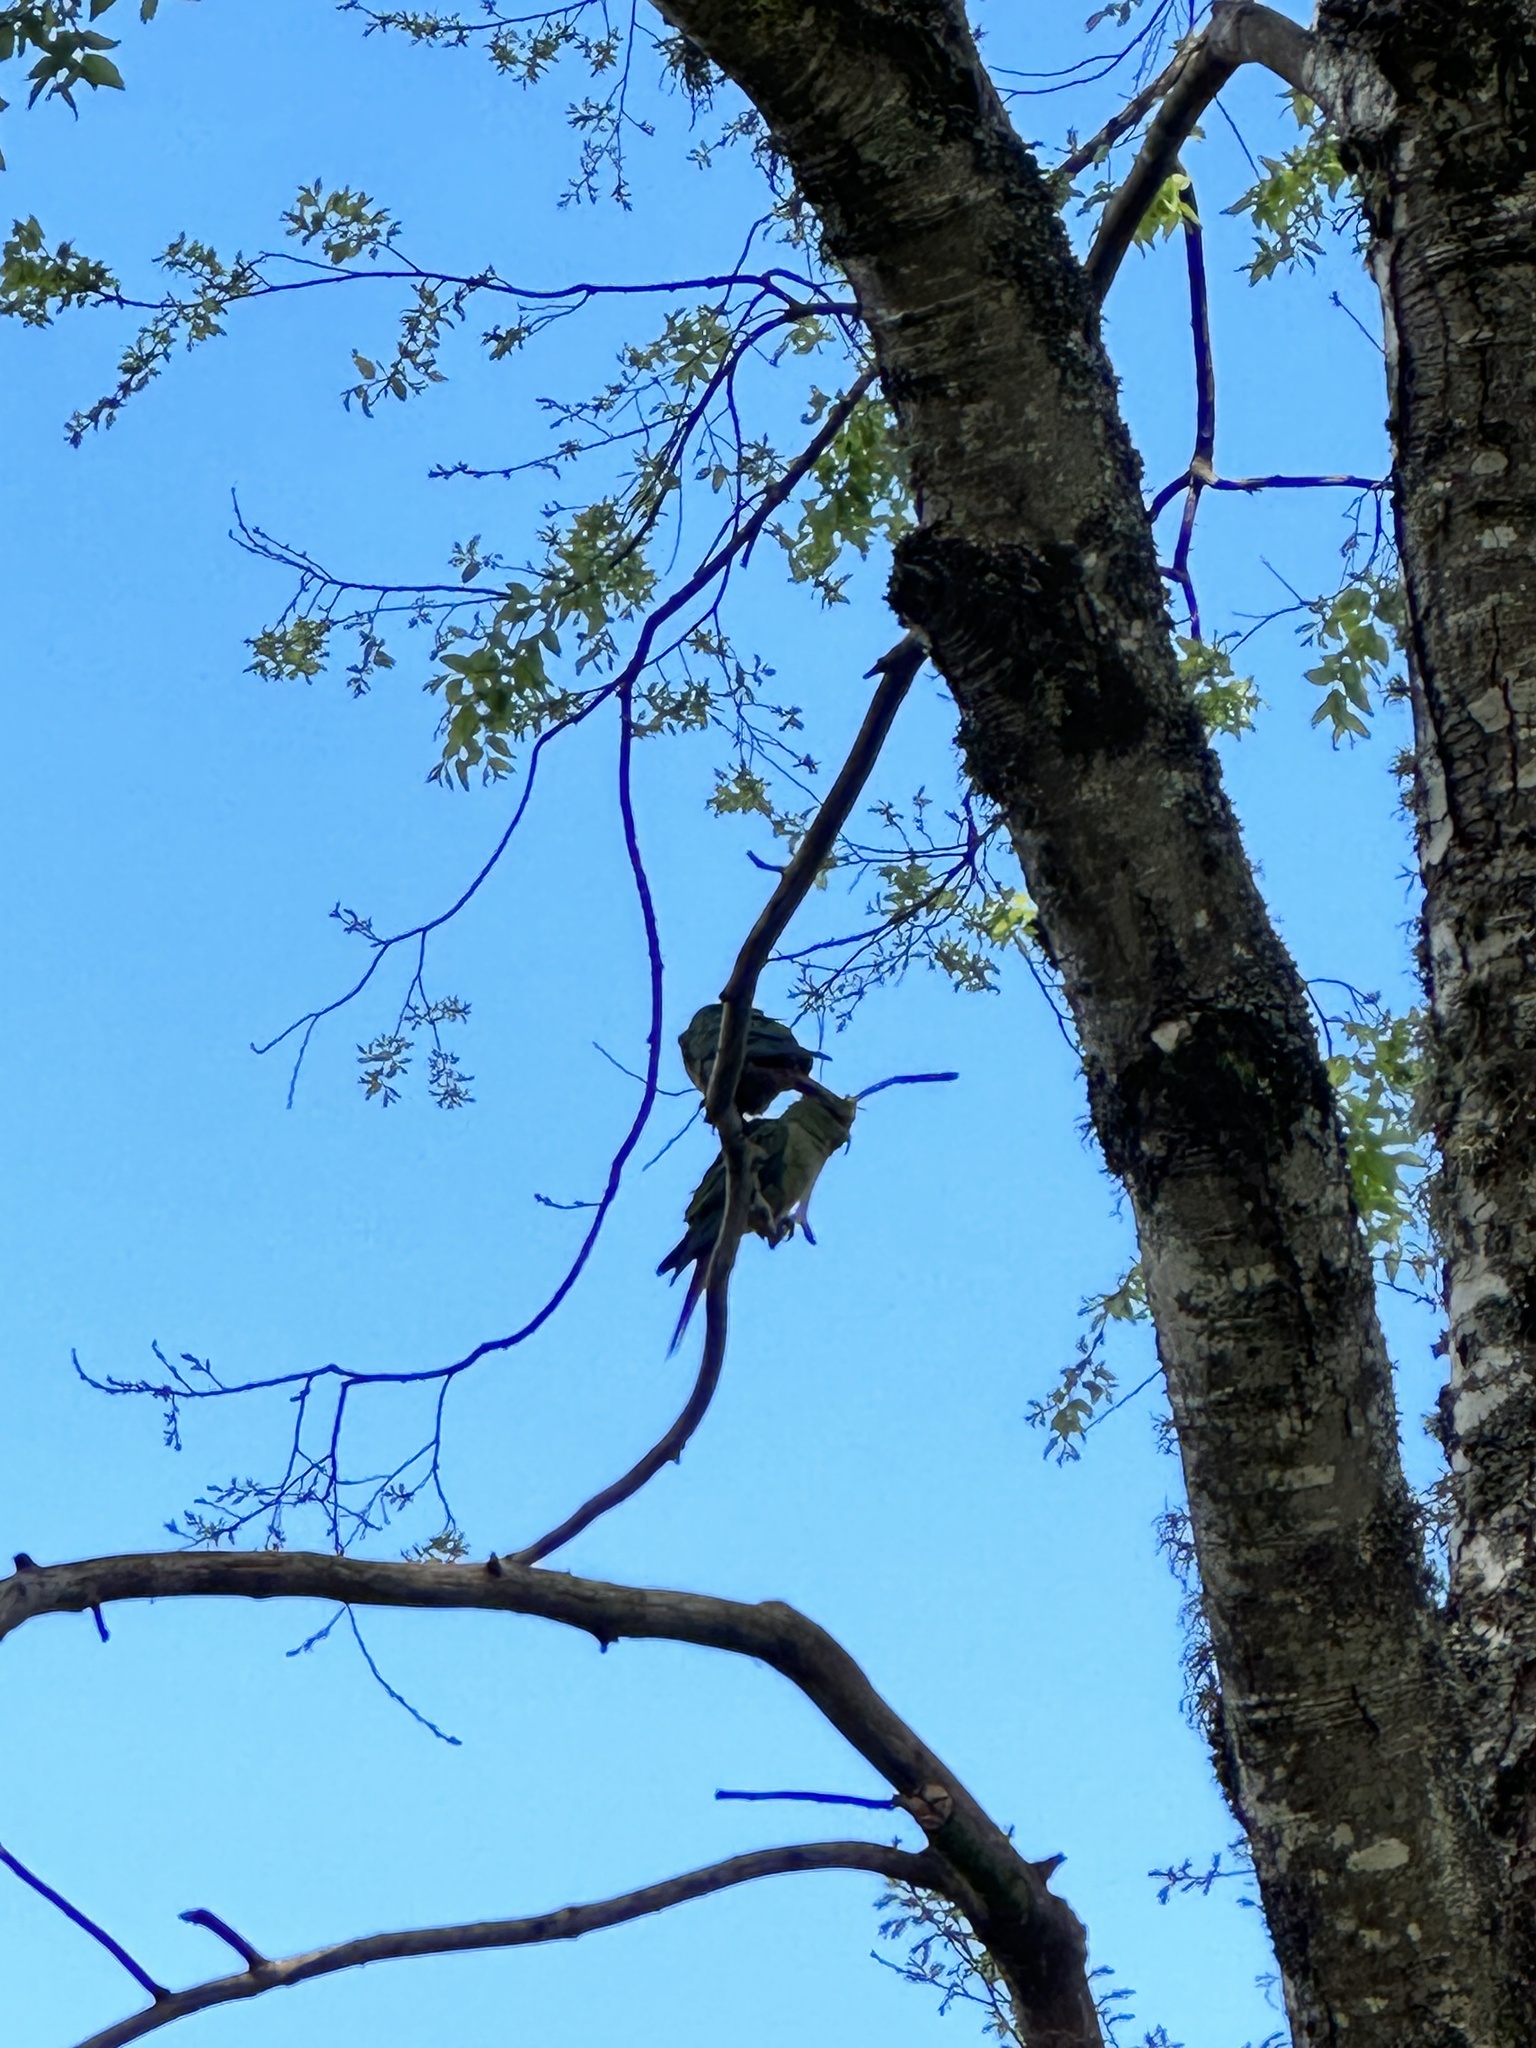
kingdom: Animalia
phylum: Chordata
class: Aves
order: Psittaciformes
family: Psittacidae
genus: Enicognathus
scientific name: Enicognathus leptorhynchus
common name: Slender-billed parakeet
